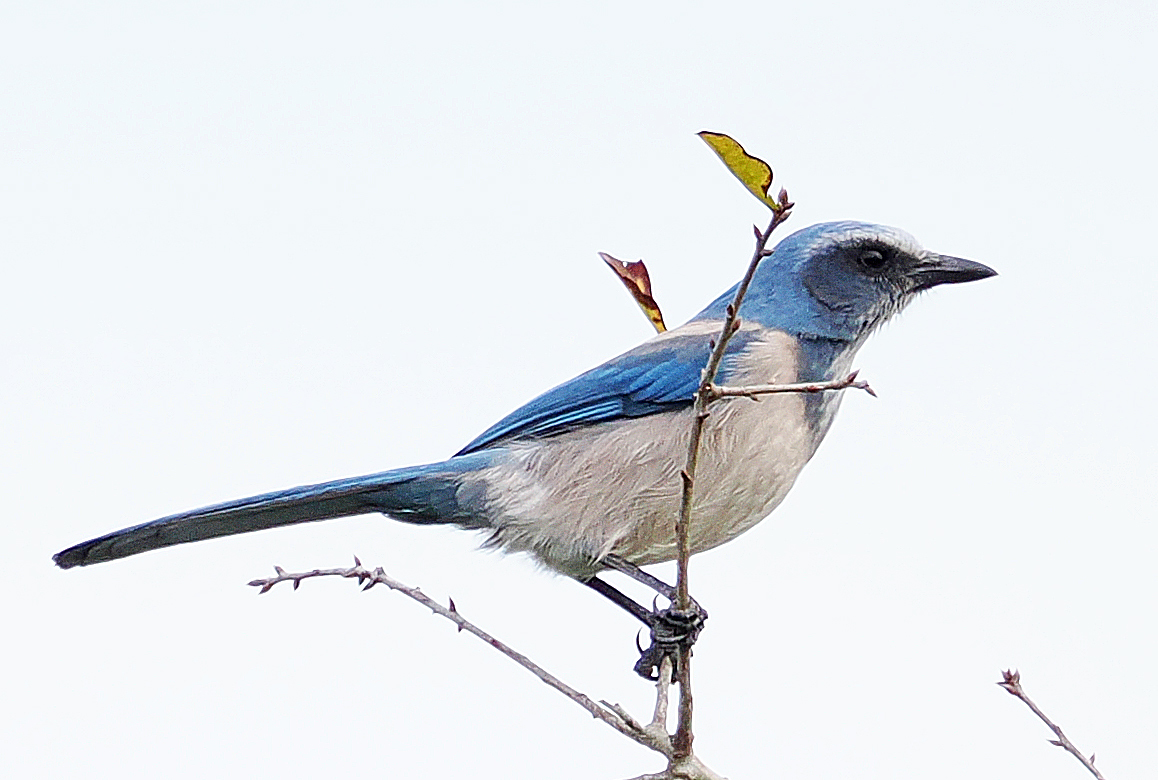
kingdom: Animalia
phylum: Chordata
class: Aves
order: Passeriformes
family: Corvidae
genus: Aphelocoma
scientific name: Aphelocoma coerulescens
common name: Florida scrub jay
